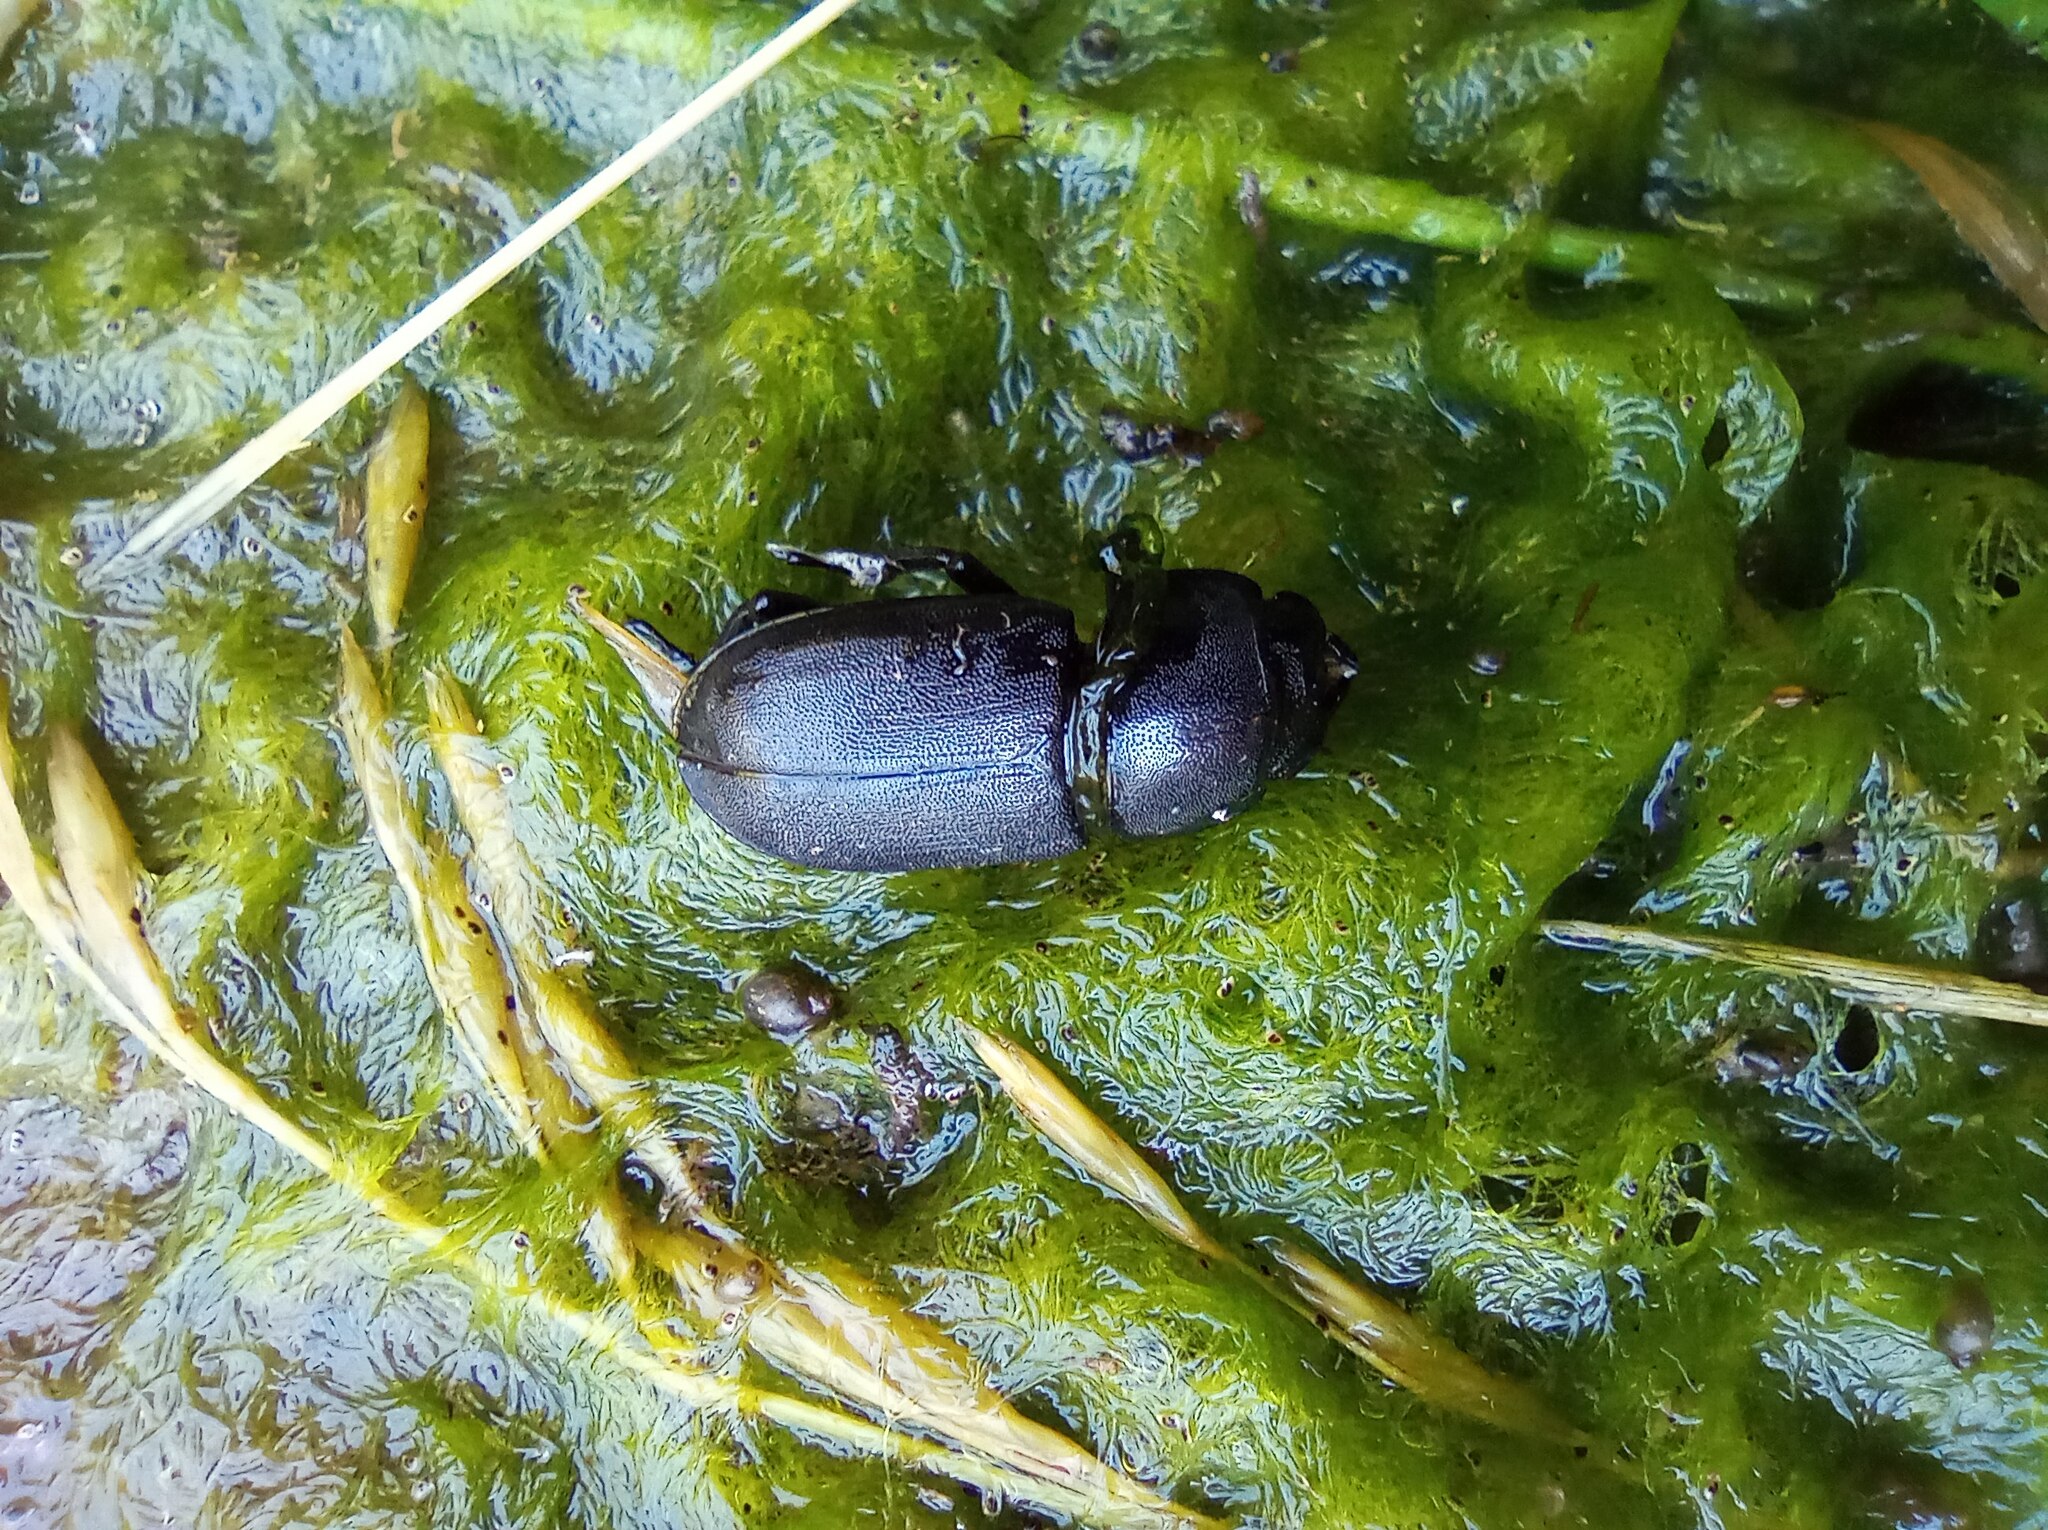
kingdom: Animalia
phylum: Arthropoda
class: Insecta
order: Coleoptera
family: Lucanidae
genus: Dorcus
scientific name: Dorcus parallelipipedus
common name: Lesser stag beetle
